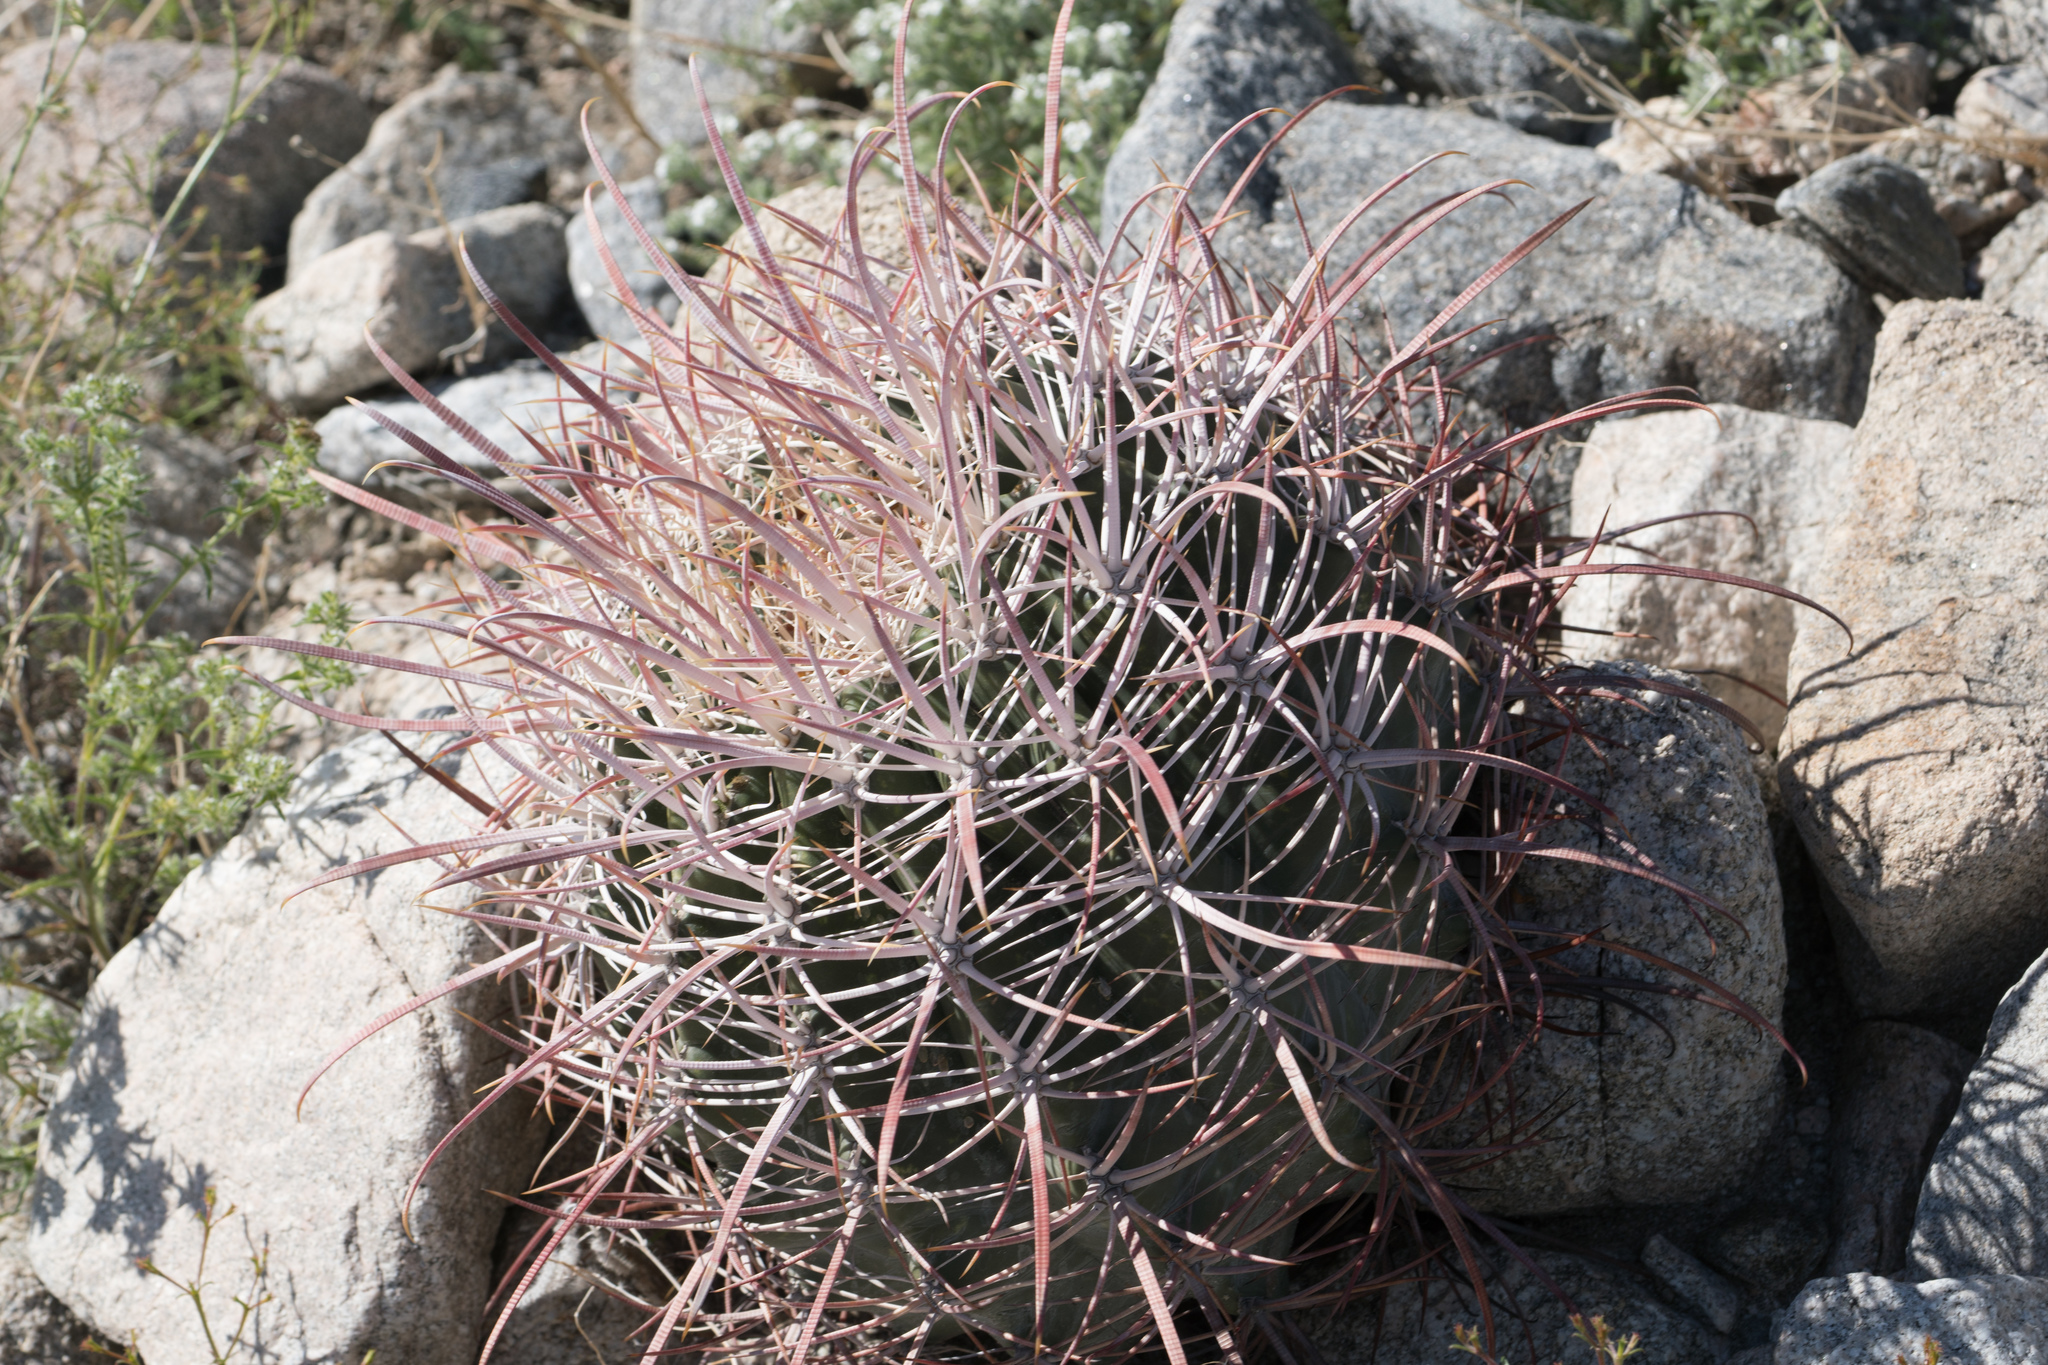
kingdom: Plantae
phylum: Tracheophyta
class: Magnoliopsida
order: Caryophyllales
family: Cactaceae
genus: Ferocactus
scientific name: Ferocactus cylindraceus
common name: California barrel cactus
